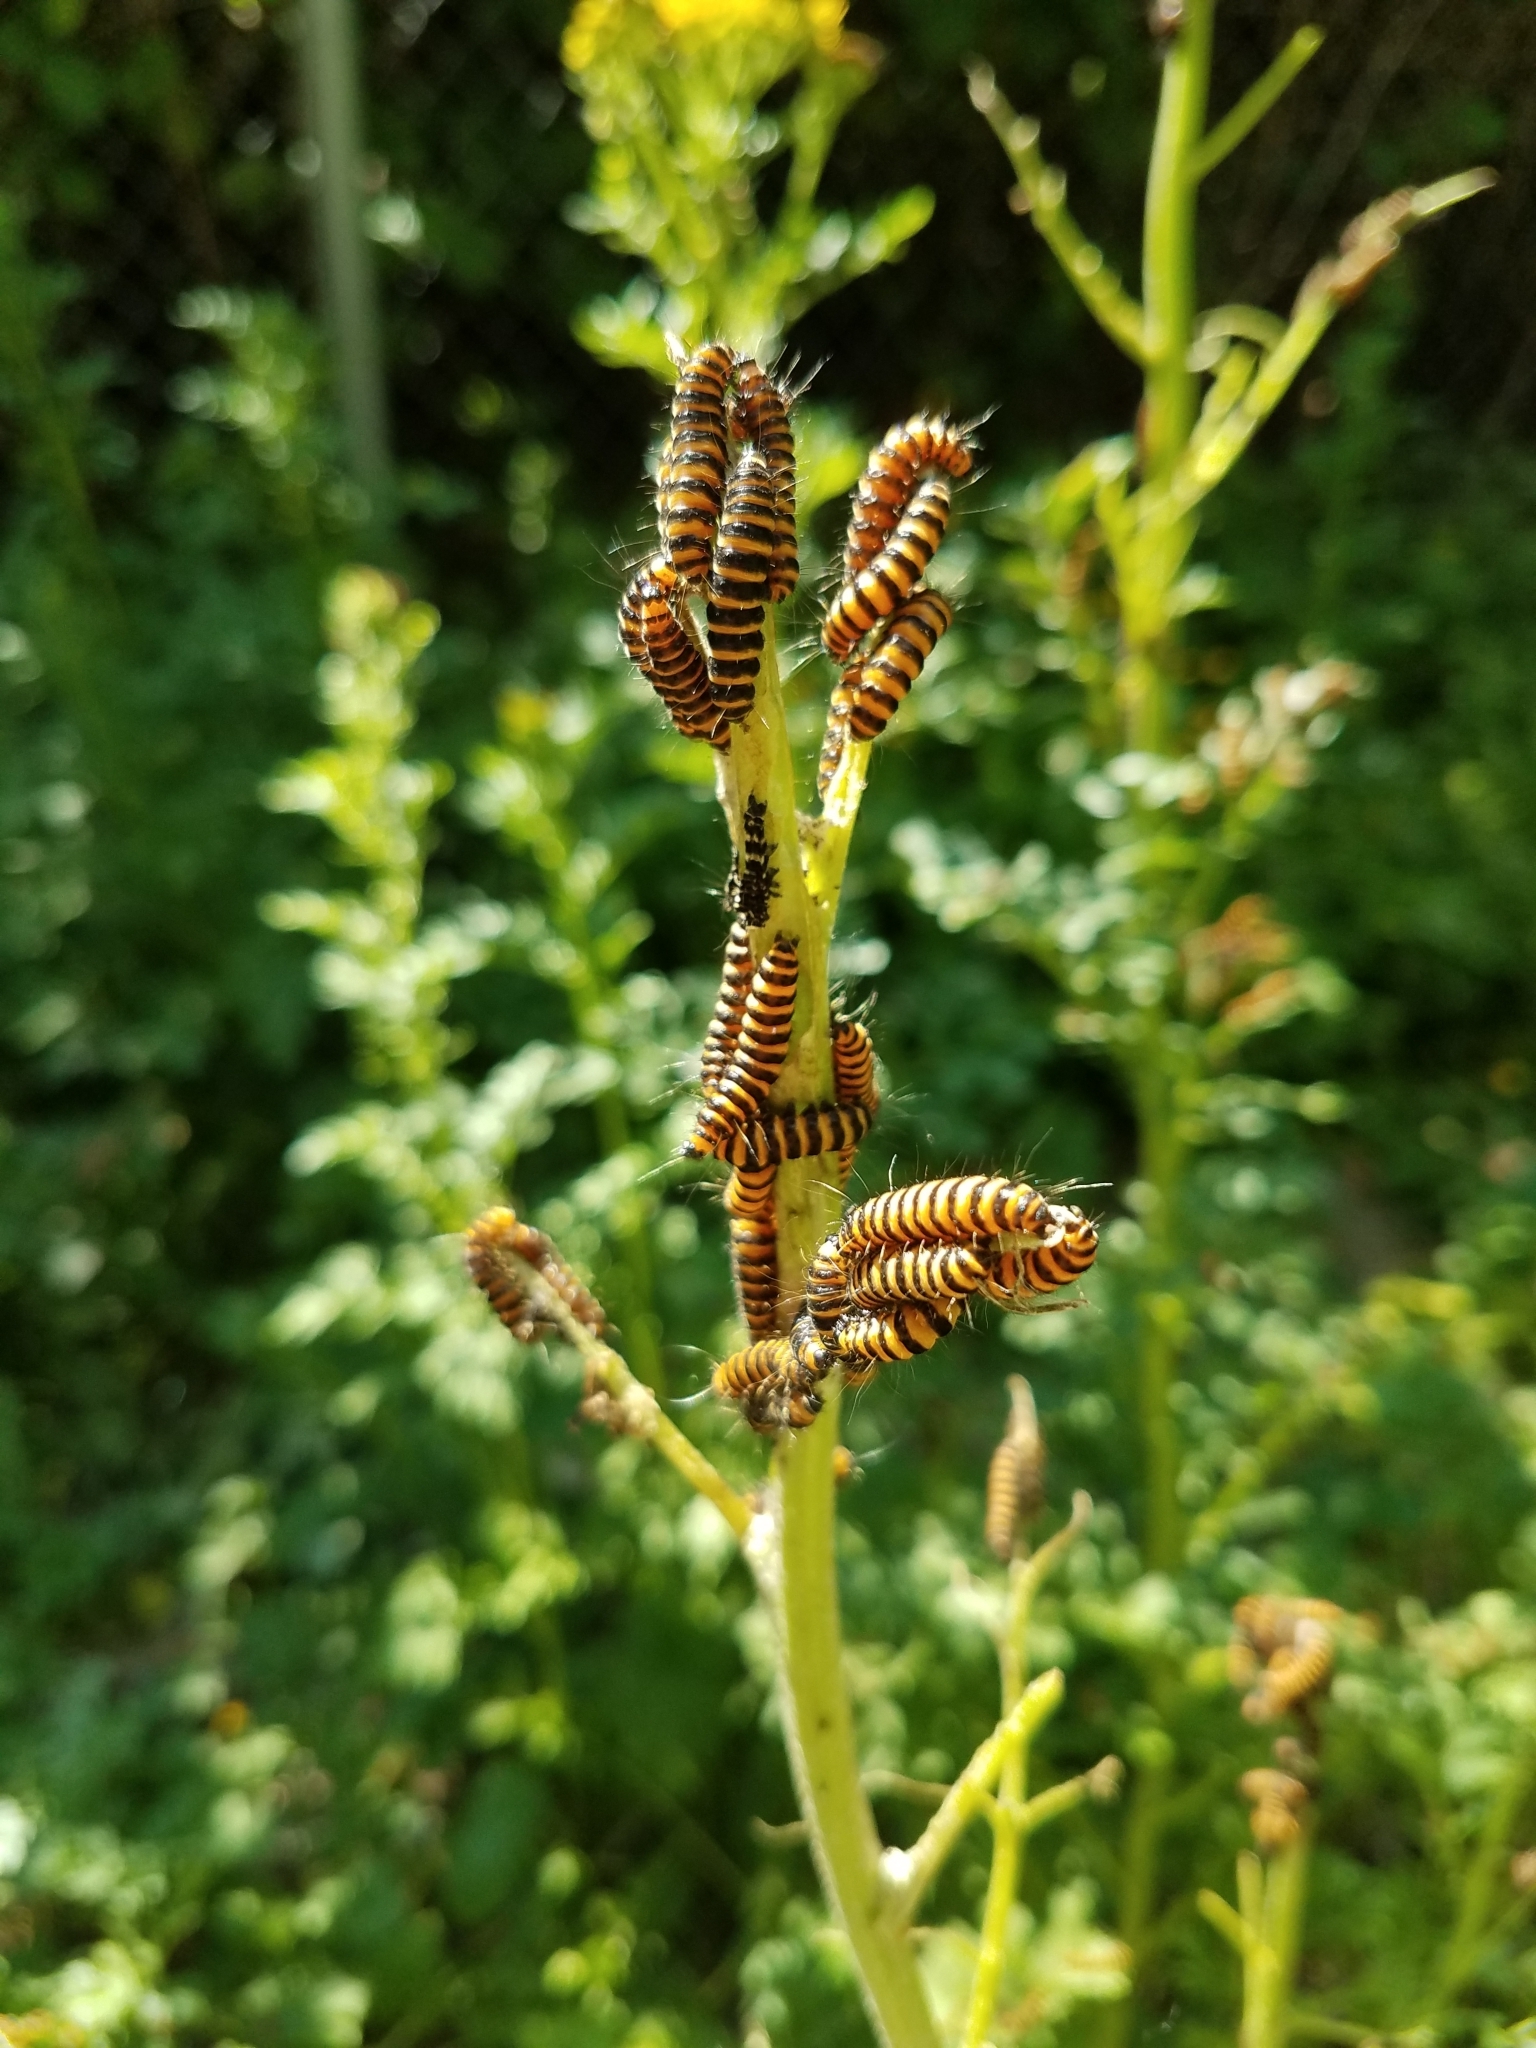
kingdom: Animalia
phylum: Arthropoda
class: Insecta
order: Lepidoptera
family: Erebidae
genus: Tyria
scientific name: Tyria jacobaeae
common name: Cinnabar
